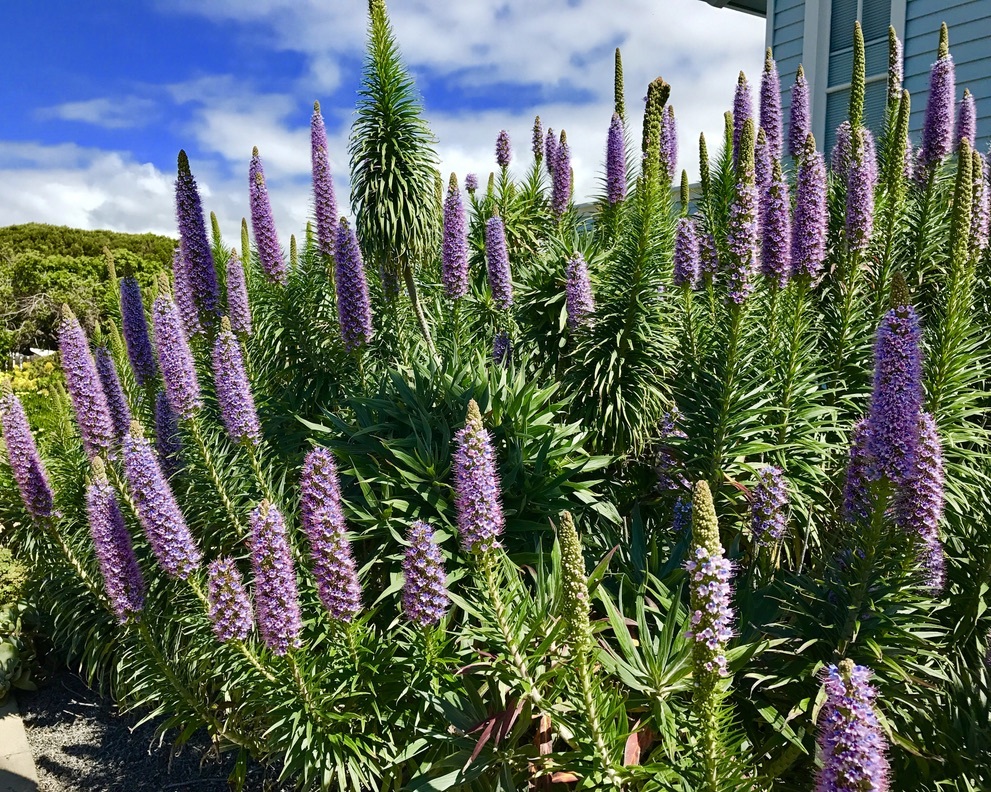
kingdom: Plantae
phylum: Tracheophyta
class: Magnoliopsida
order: Boraginales
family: Boraginaceae
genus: Echium
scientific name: Echium candicans
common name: Pride of madeira
